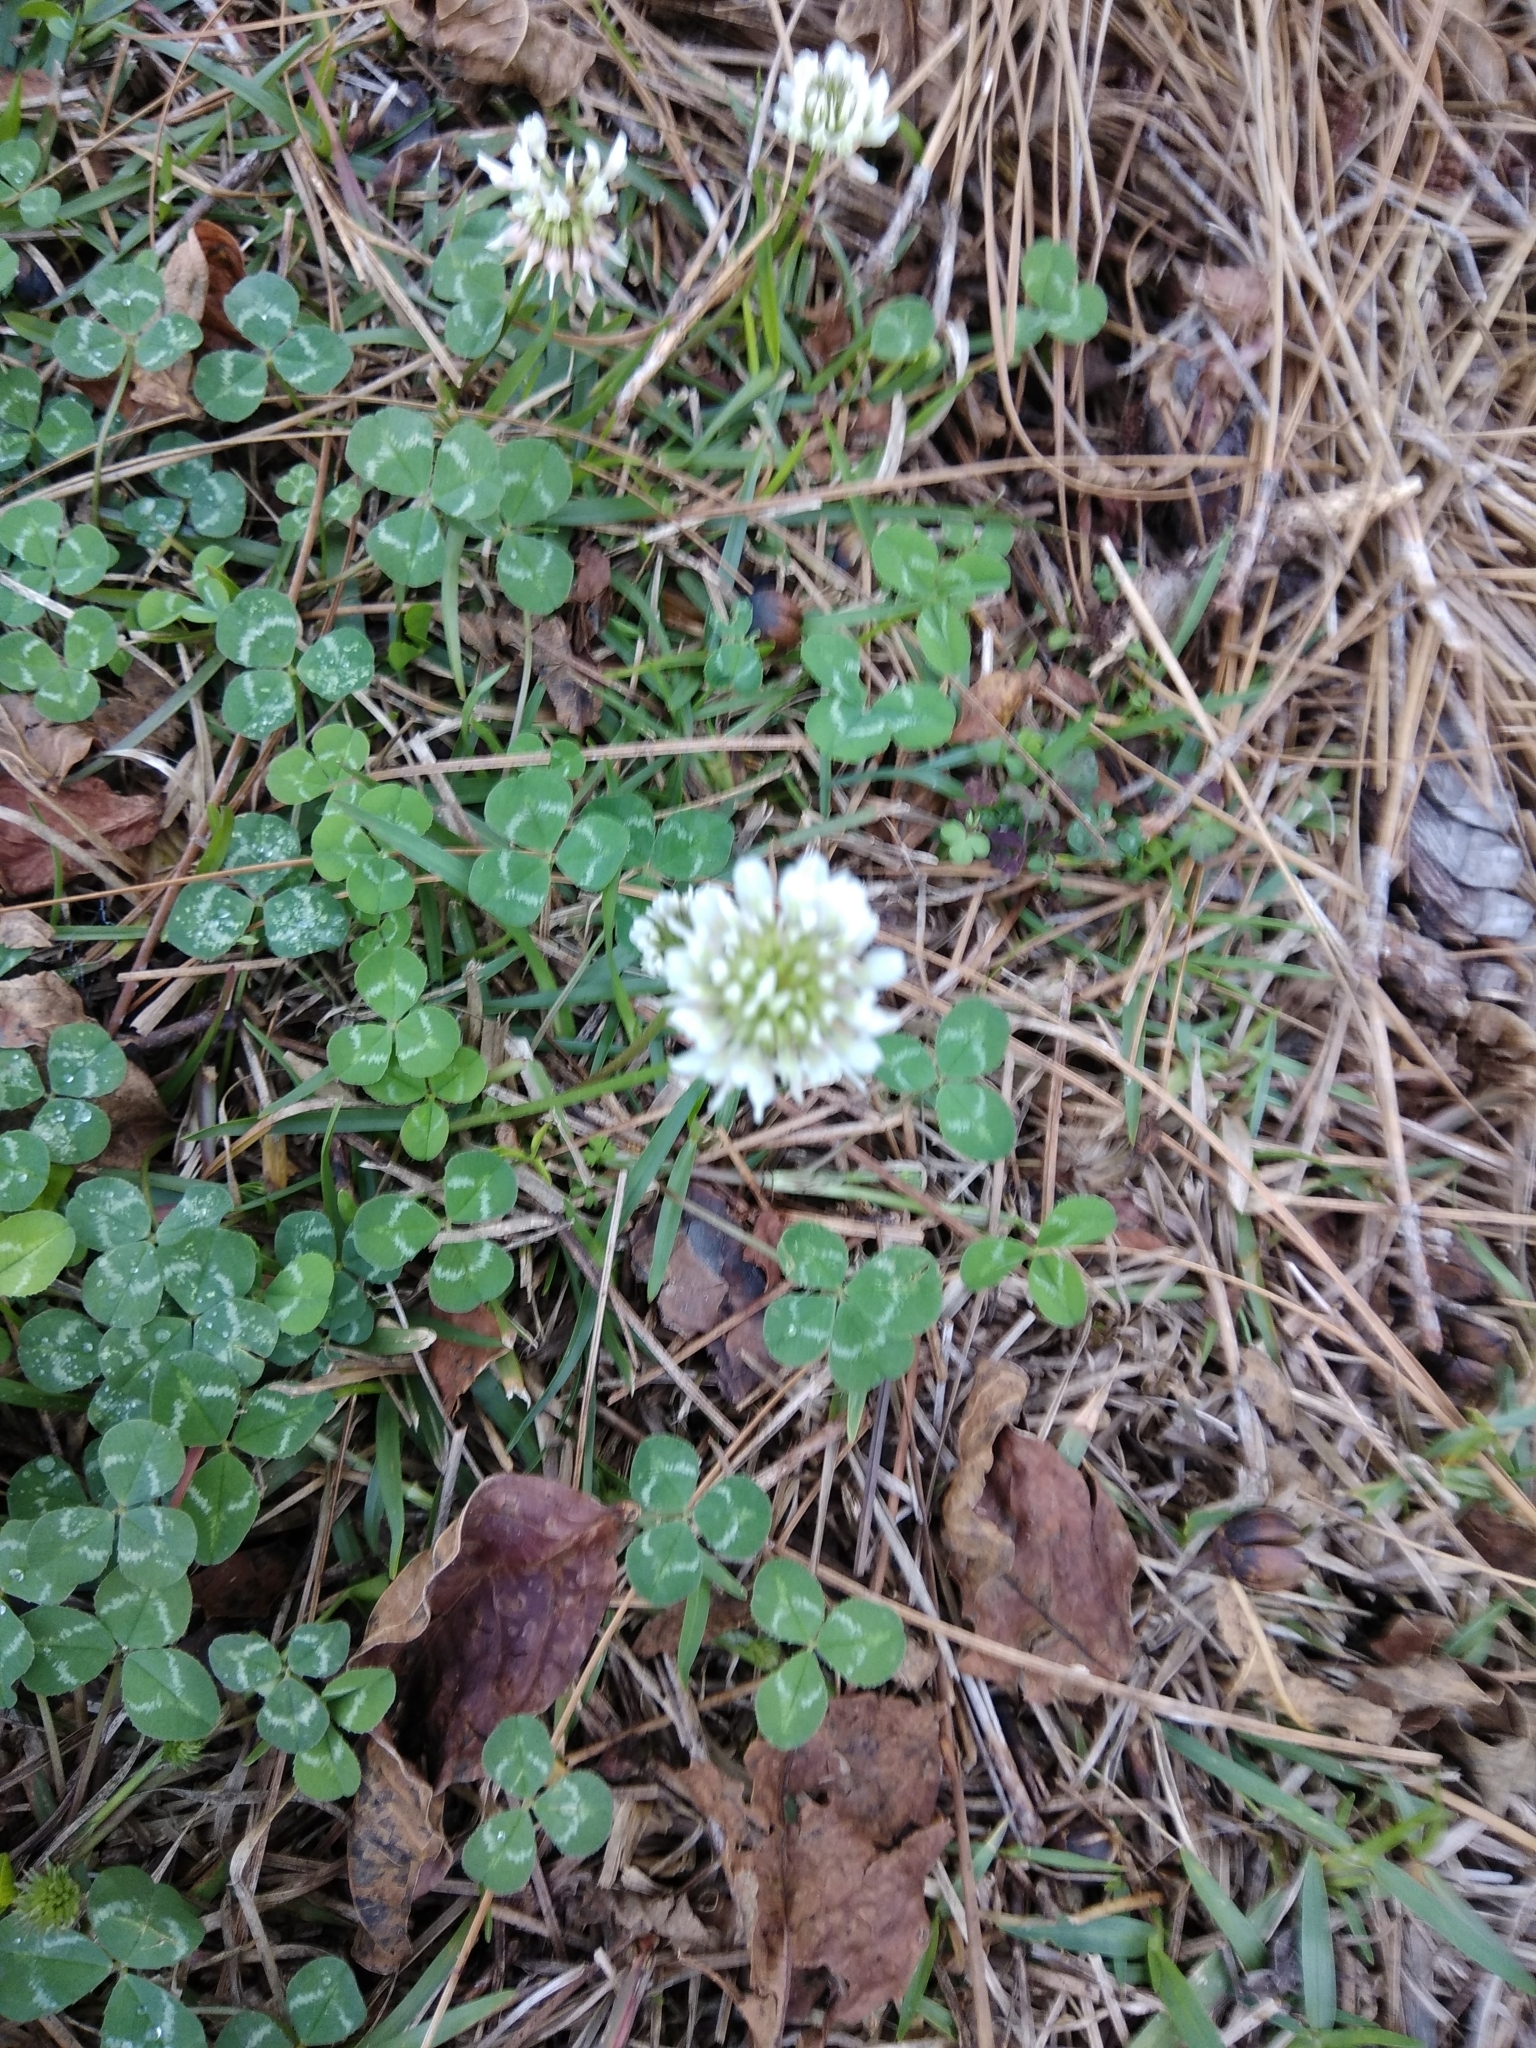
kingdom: Plantae
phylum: Tracheophyta
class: Magnoliopsida
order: Fabales
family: Fabaceae
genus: Trifolium
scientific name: Trifolium repens
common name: White clover
